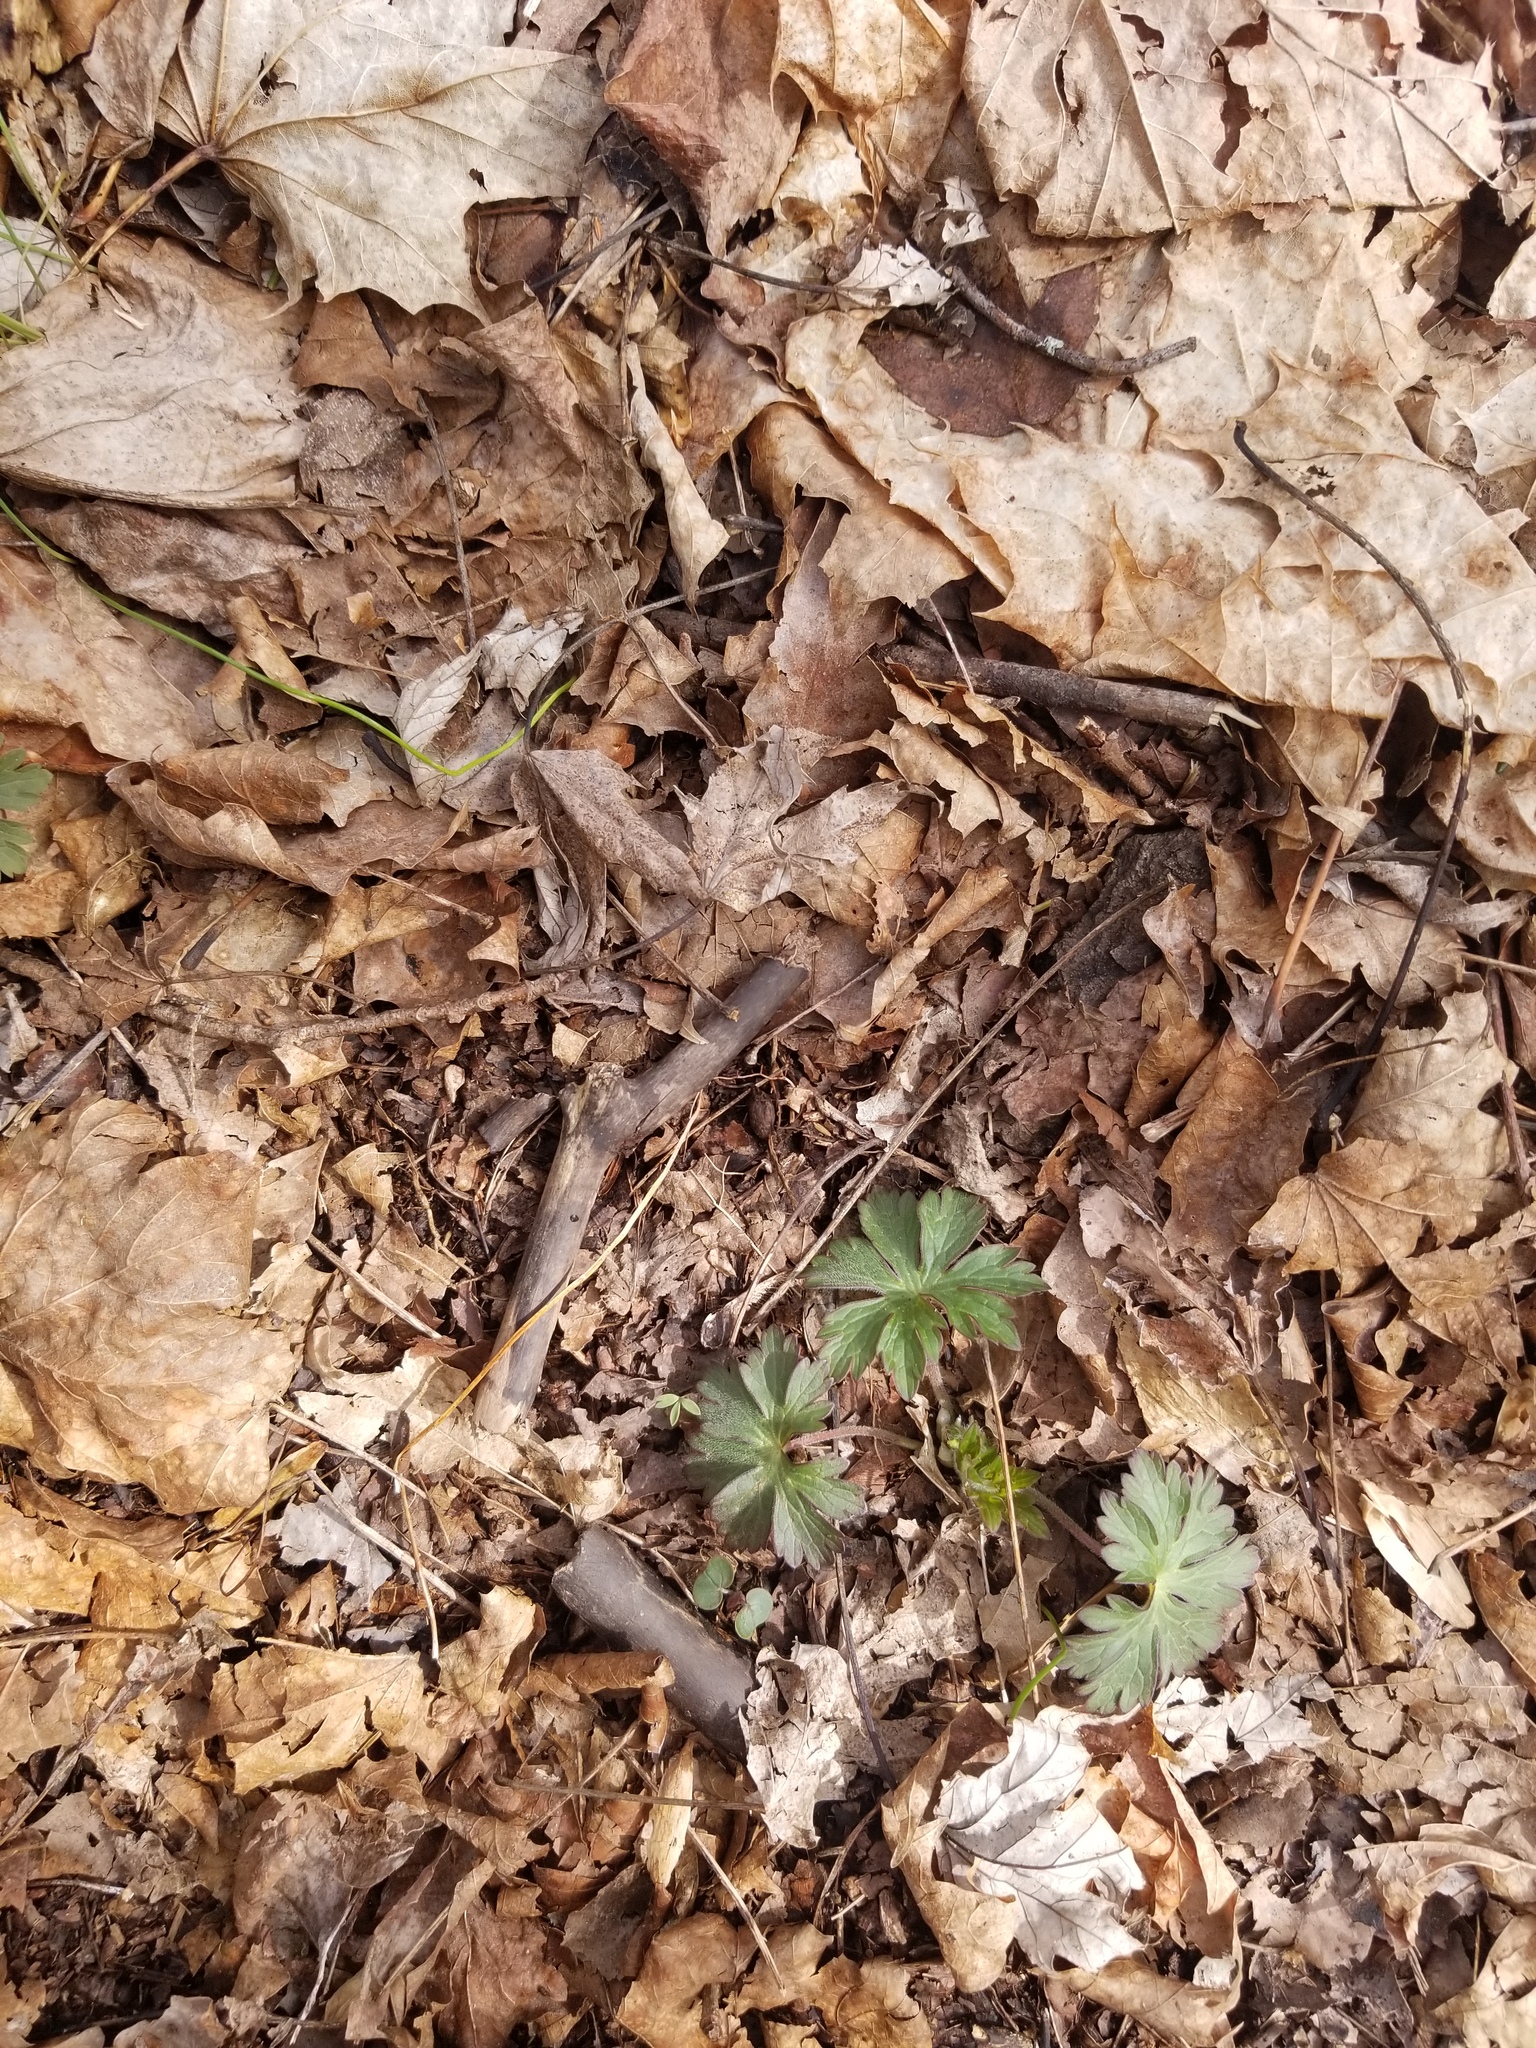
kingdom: Plantae
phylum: Tracheophyta
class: Magnoliopsida
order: Geraniales
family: Geraniaceae
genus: Geranium
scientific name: Geranium maculatum
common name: Spotted geranium
